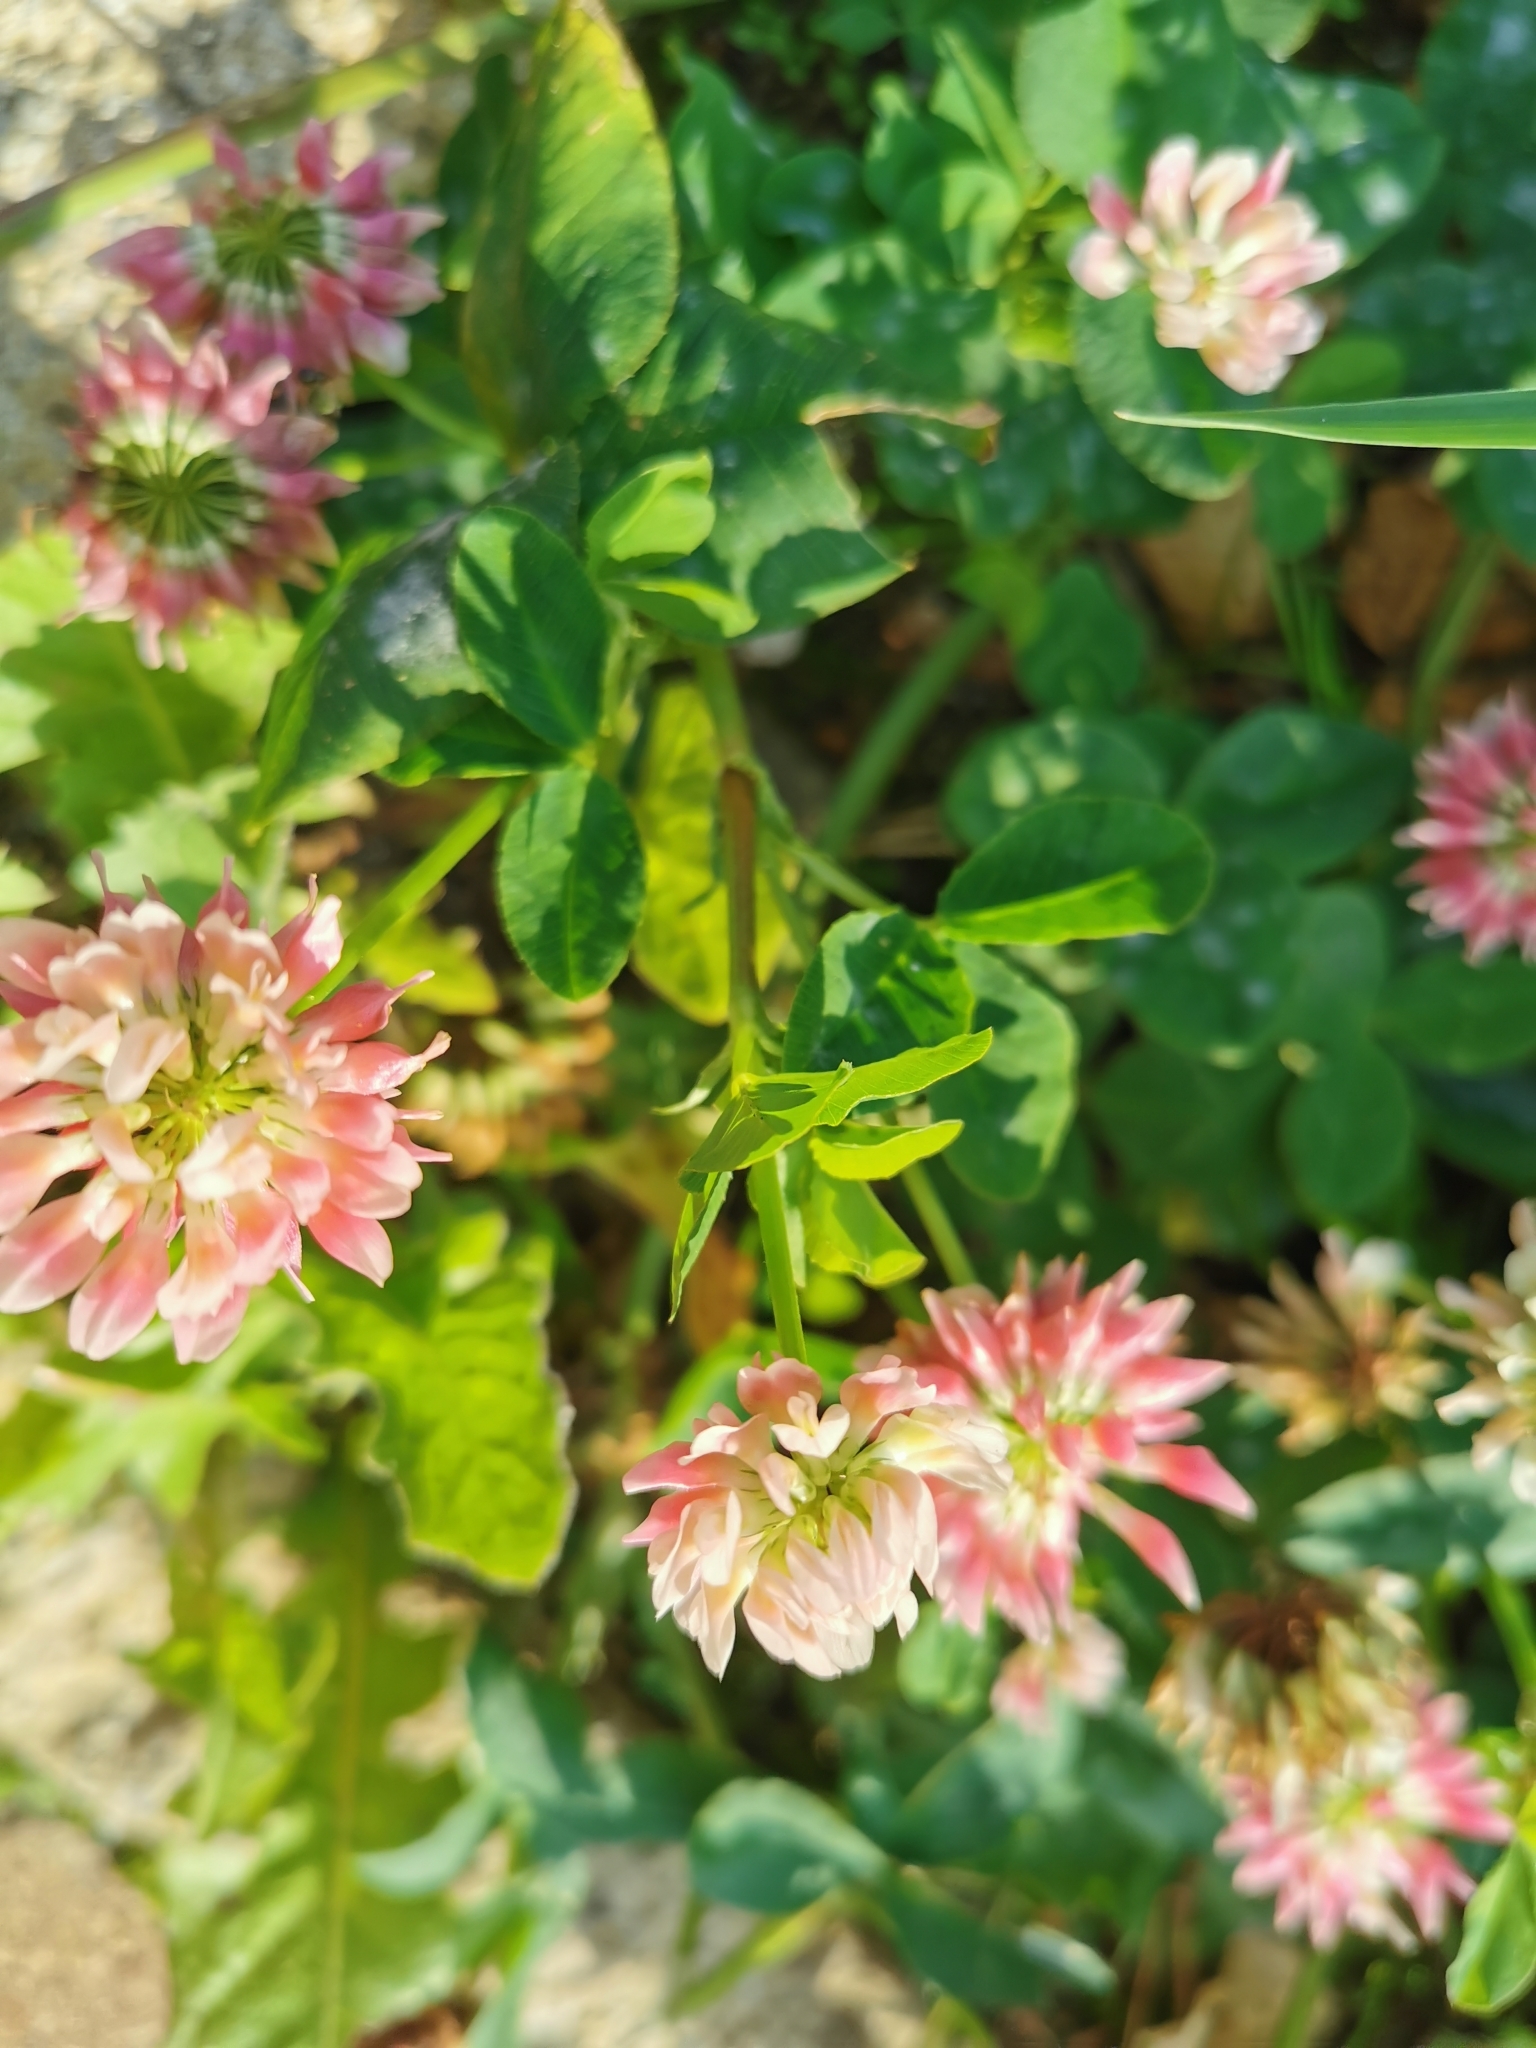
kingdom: Plantae
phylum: Tracheophyta
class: Magnoliopsida
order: Fabales
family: Fabaceae
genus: Trifolium
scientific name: Trifolium hybridum
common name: Alsike clover
